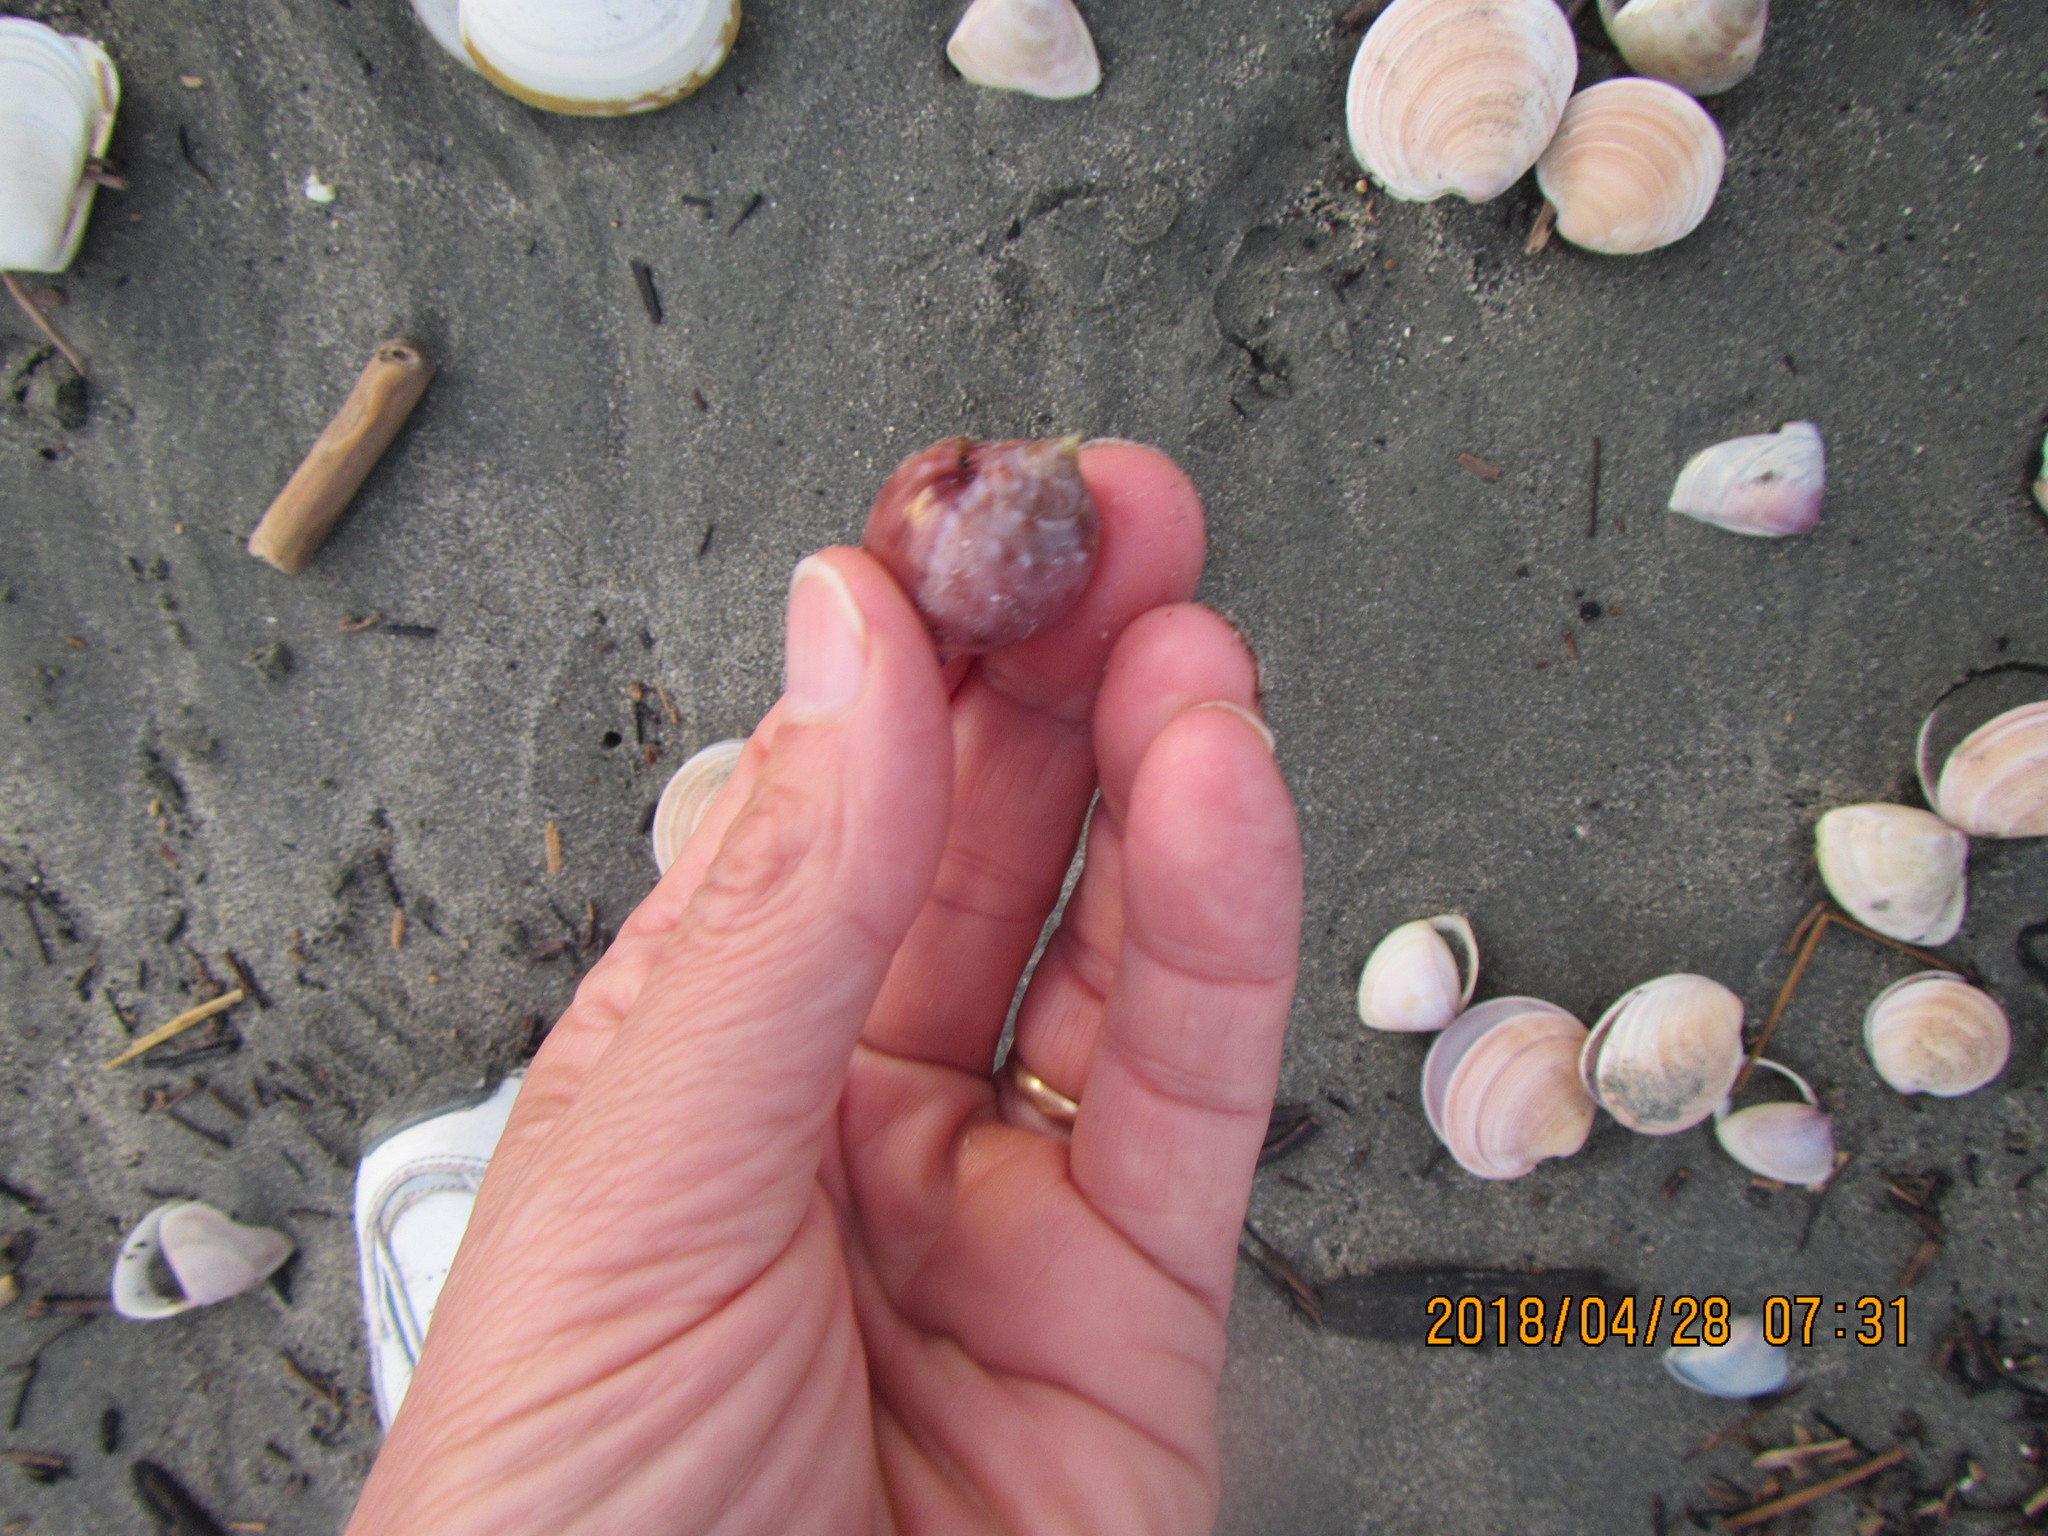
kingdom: Animalia
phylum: Mollusca
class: Gastropoda
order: Littorinimorpha
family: Cassidae
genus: Semicassis
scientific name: Semicassis pyrum
